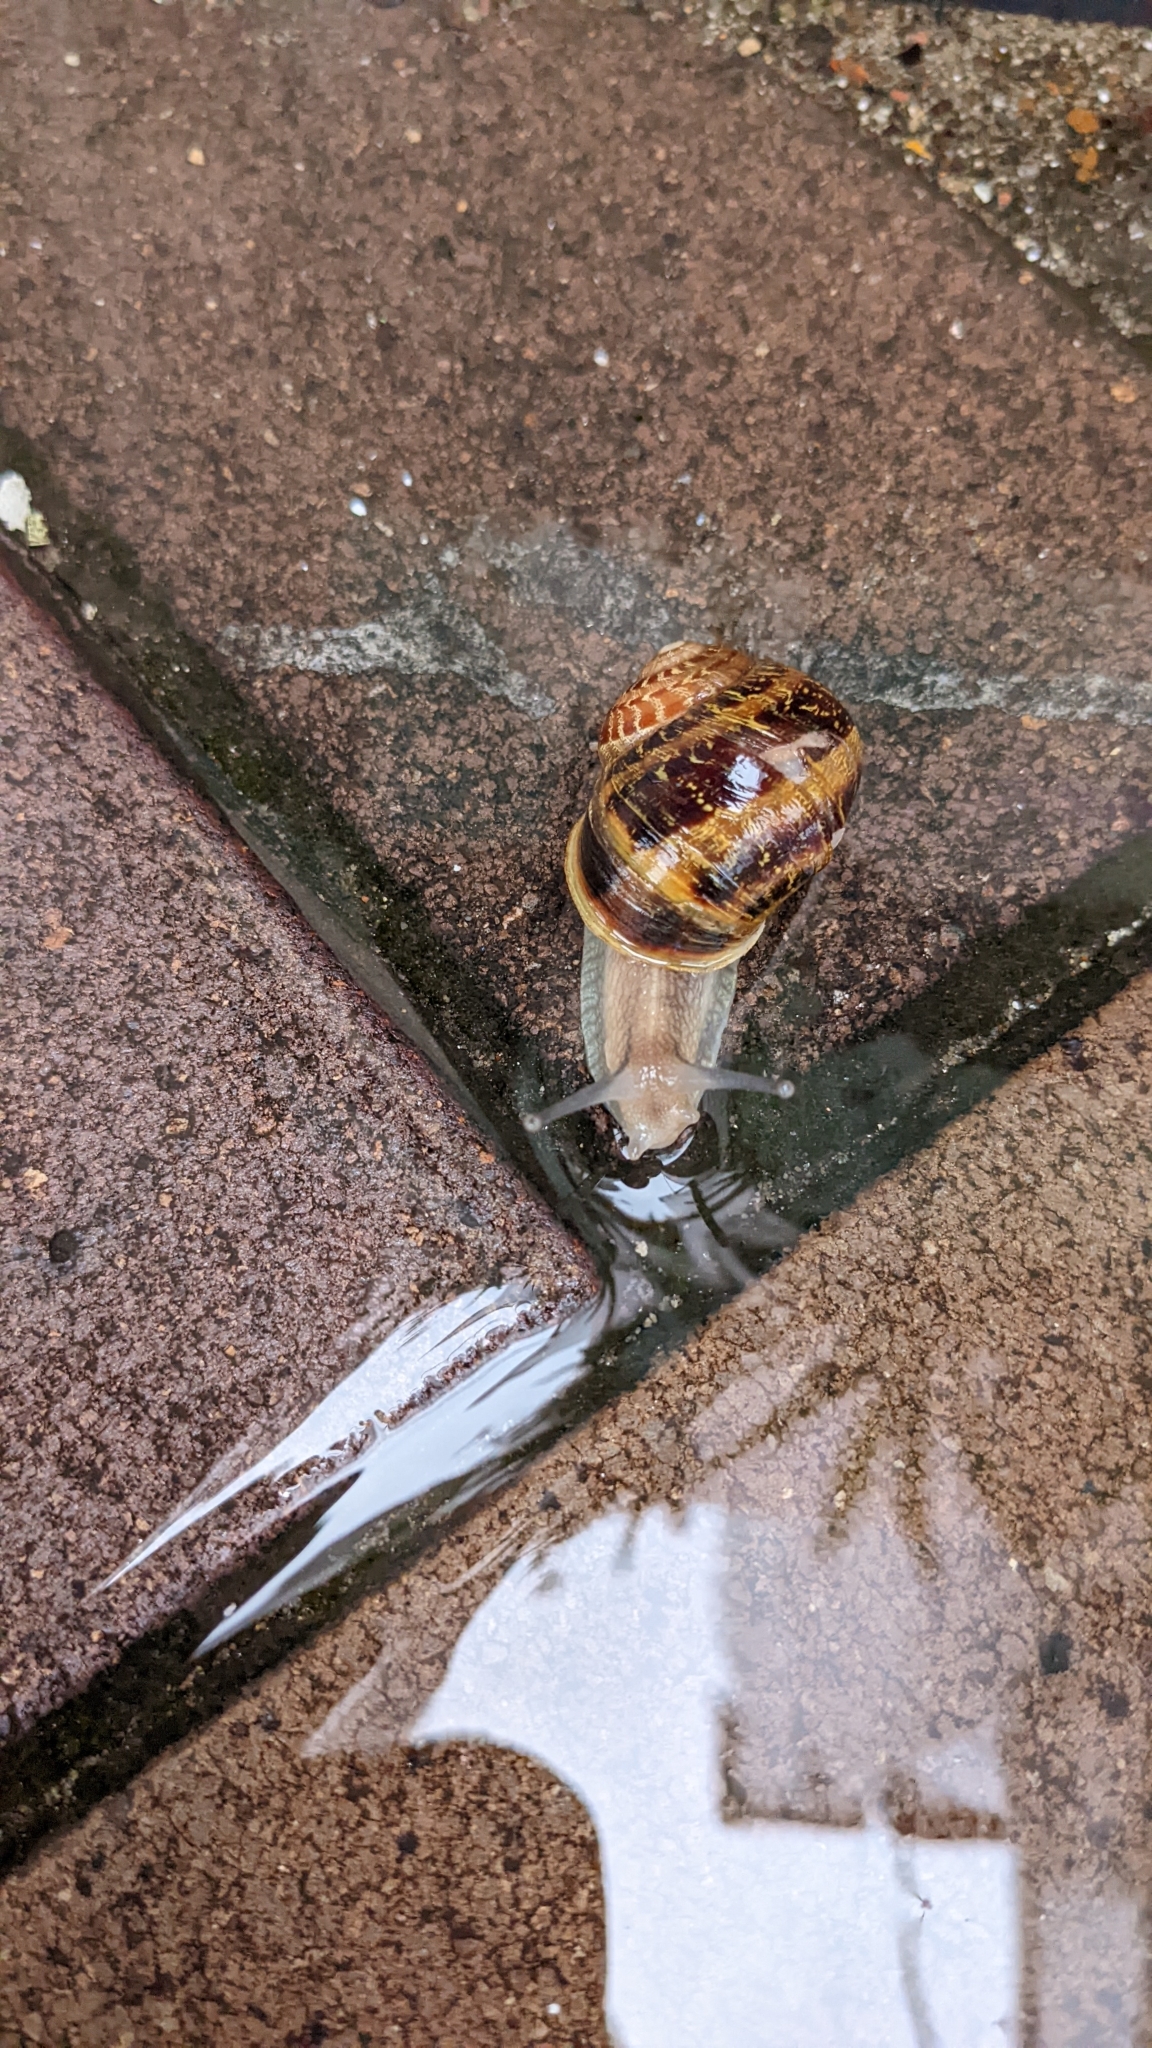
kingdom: Animalia
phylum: Mollusca
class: Gastropoda
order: Stylommatophora
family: Helicidae
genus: Cornu
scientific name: Cornu aspersum
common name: Brown garden snail
